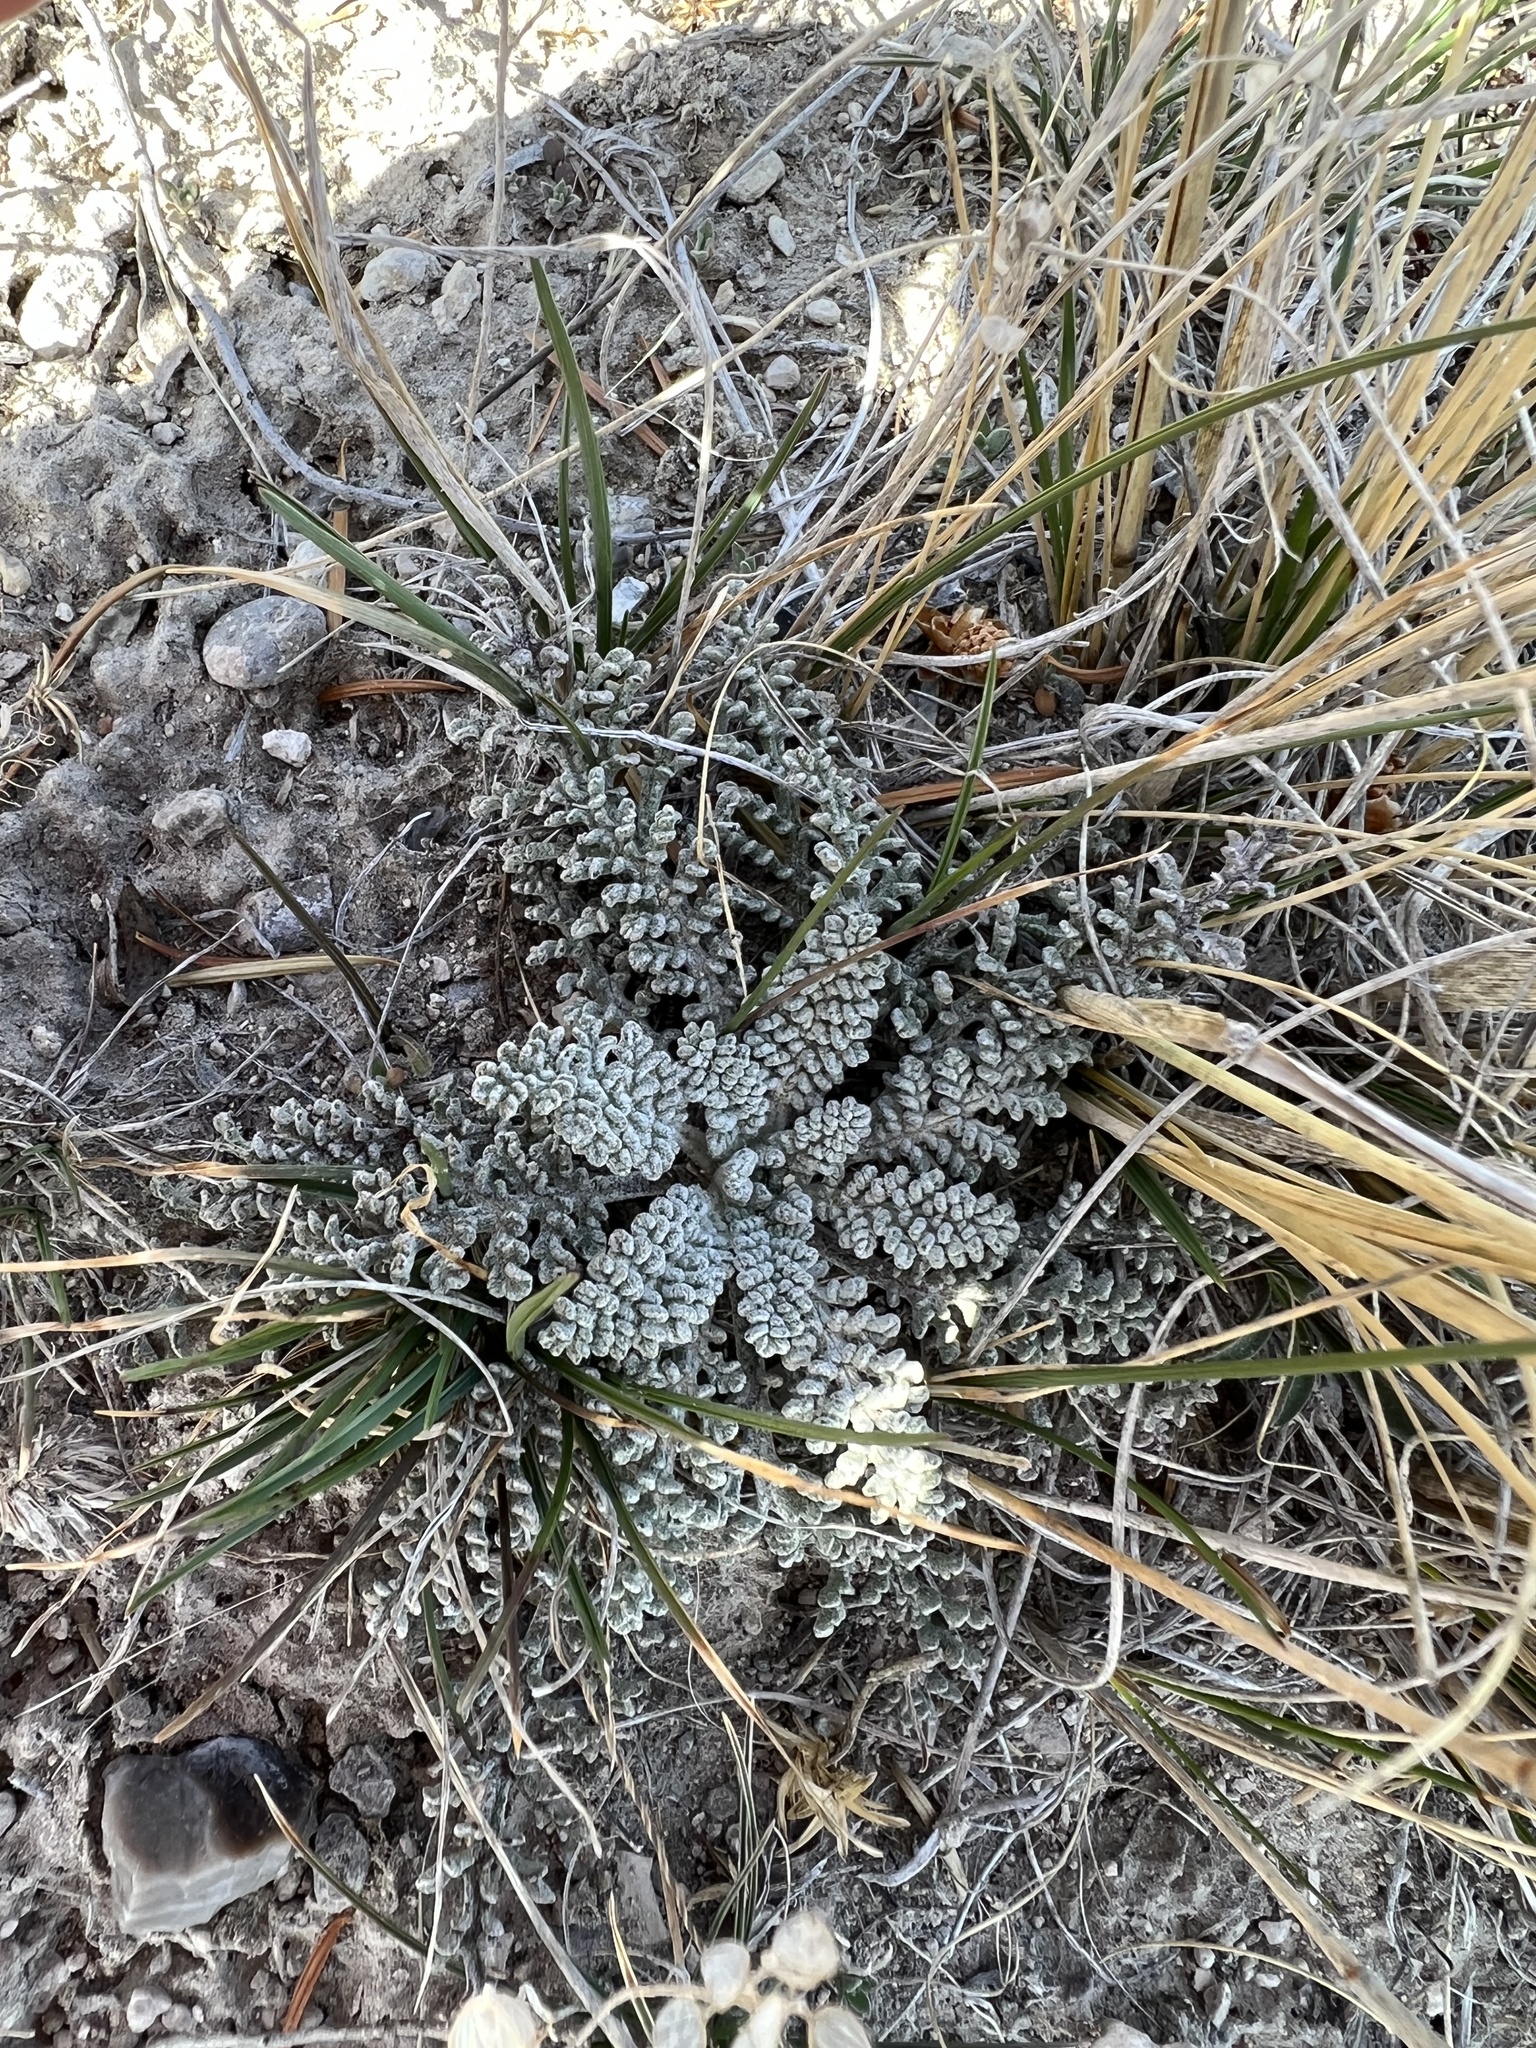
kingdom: Plantae
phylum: Tracheophyta
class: Magnoliopsida
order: Asterales
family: Asteraceae
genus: Chaenactis
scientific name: Chaenactis douglasii
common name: Hoary pincushion
